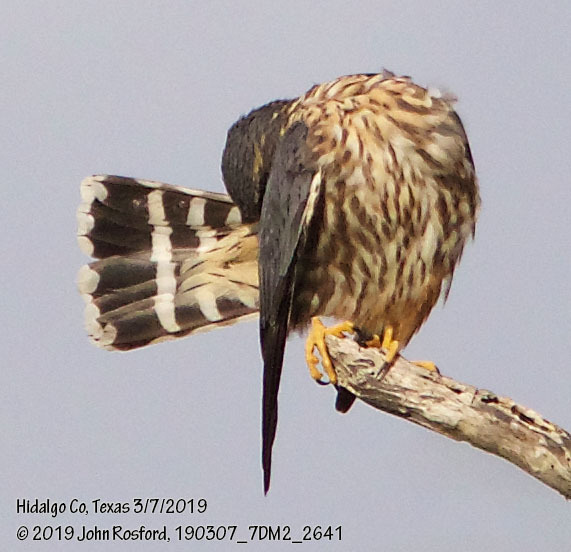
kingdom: Animalia
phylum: Chordata
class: Aves
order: Falconiformes
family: Falconidae
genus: Falco
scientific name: Falco columbarius
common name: Merlin
